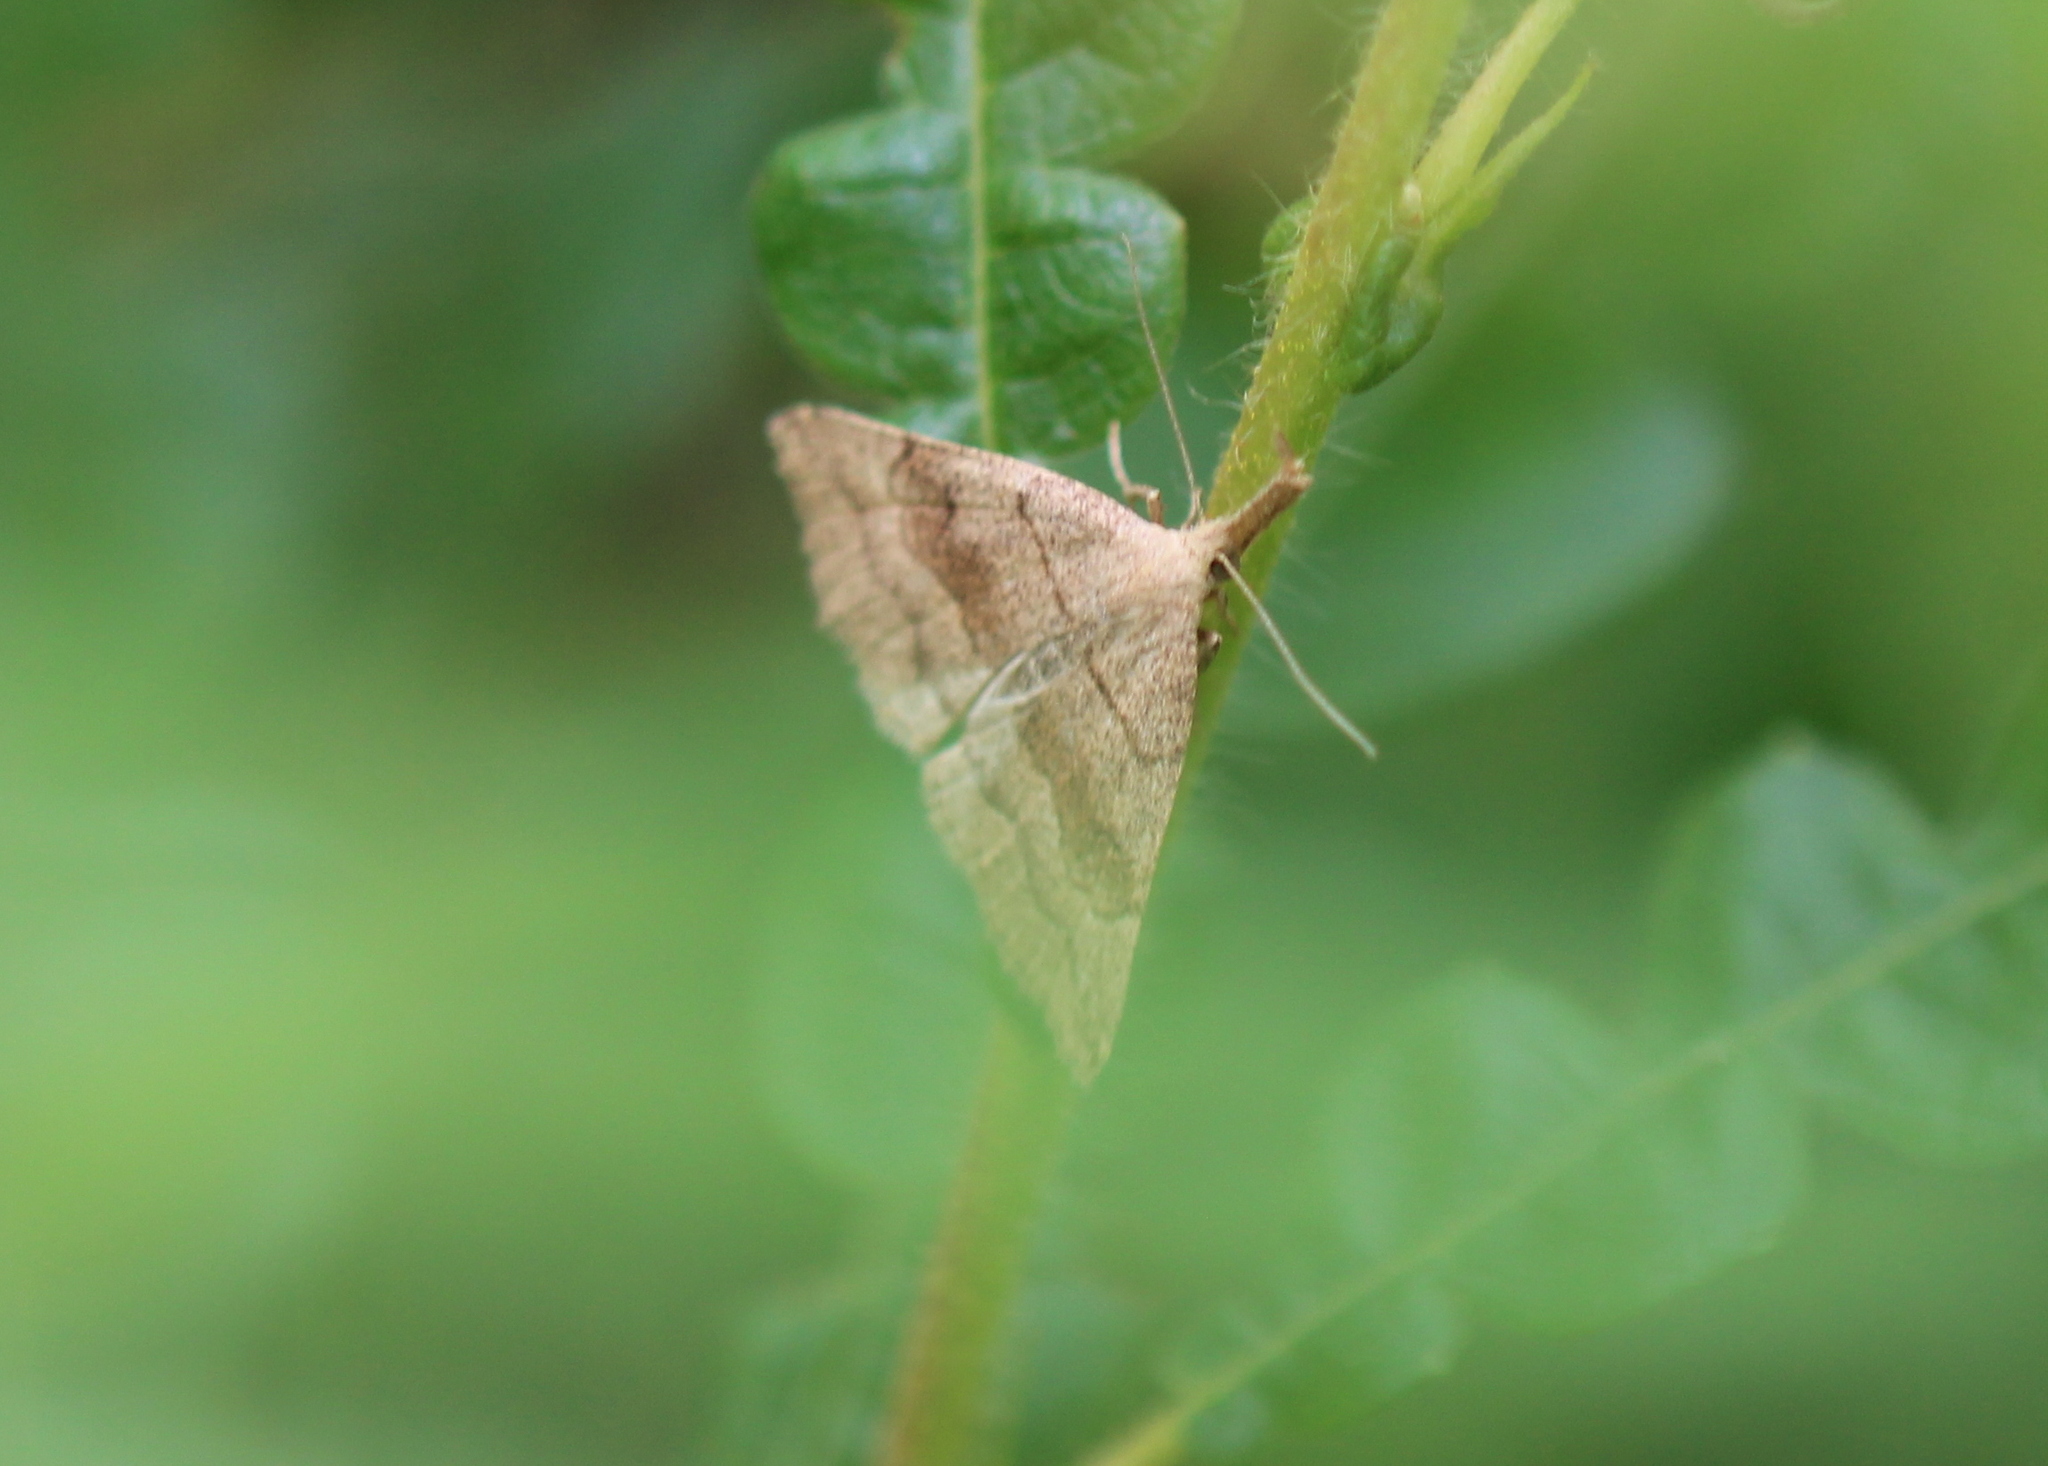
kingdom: Animalia
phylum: Arthropoda
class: Insecta
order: Lepidoptera
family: Erebidae
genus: Phalaenostola
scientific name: Phalaenostola metonalis
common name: Pale phalaenostola moth
